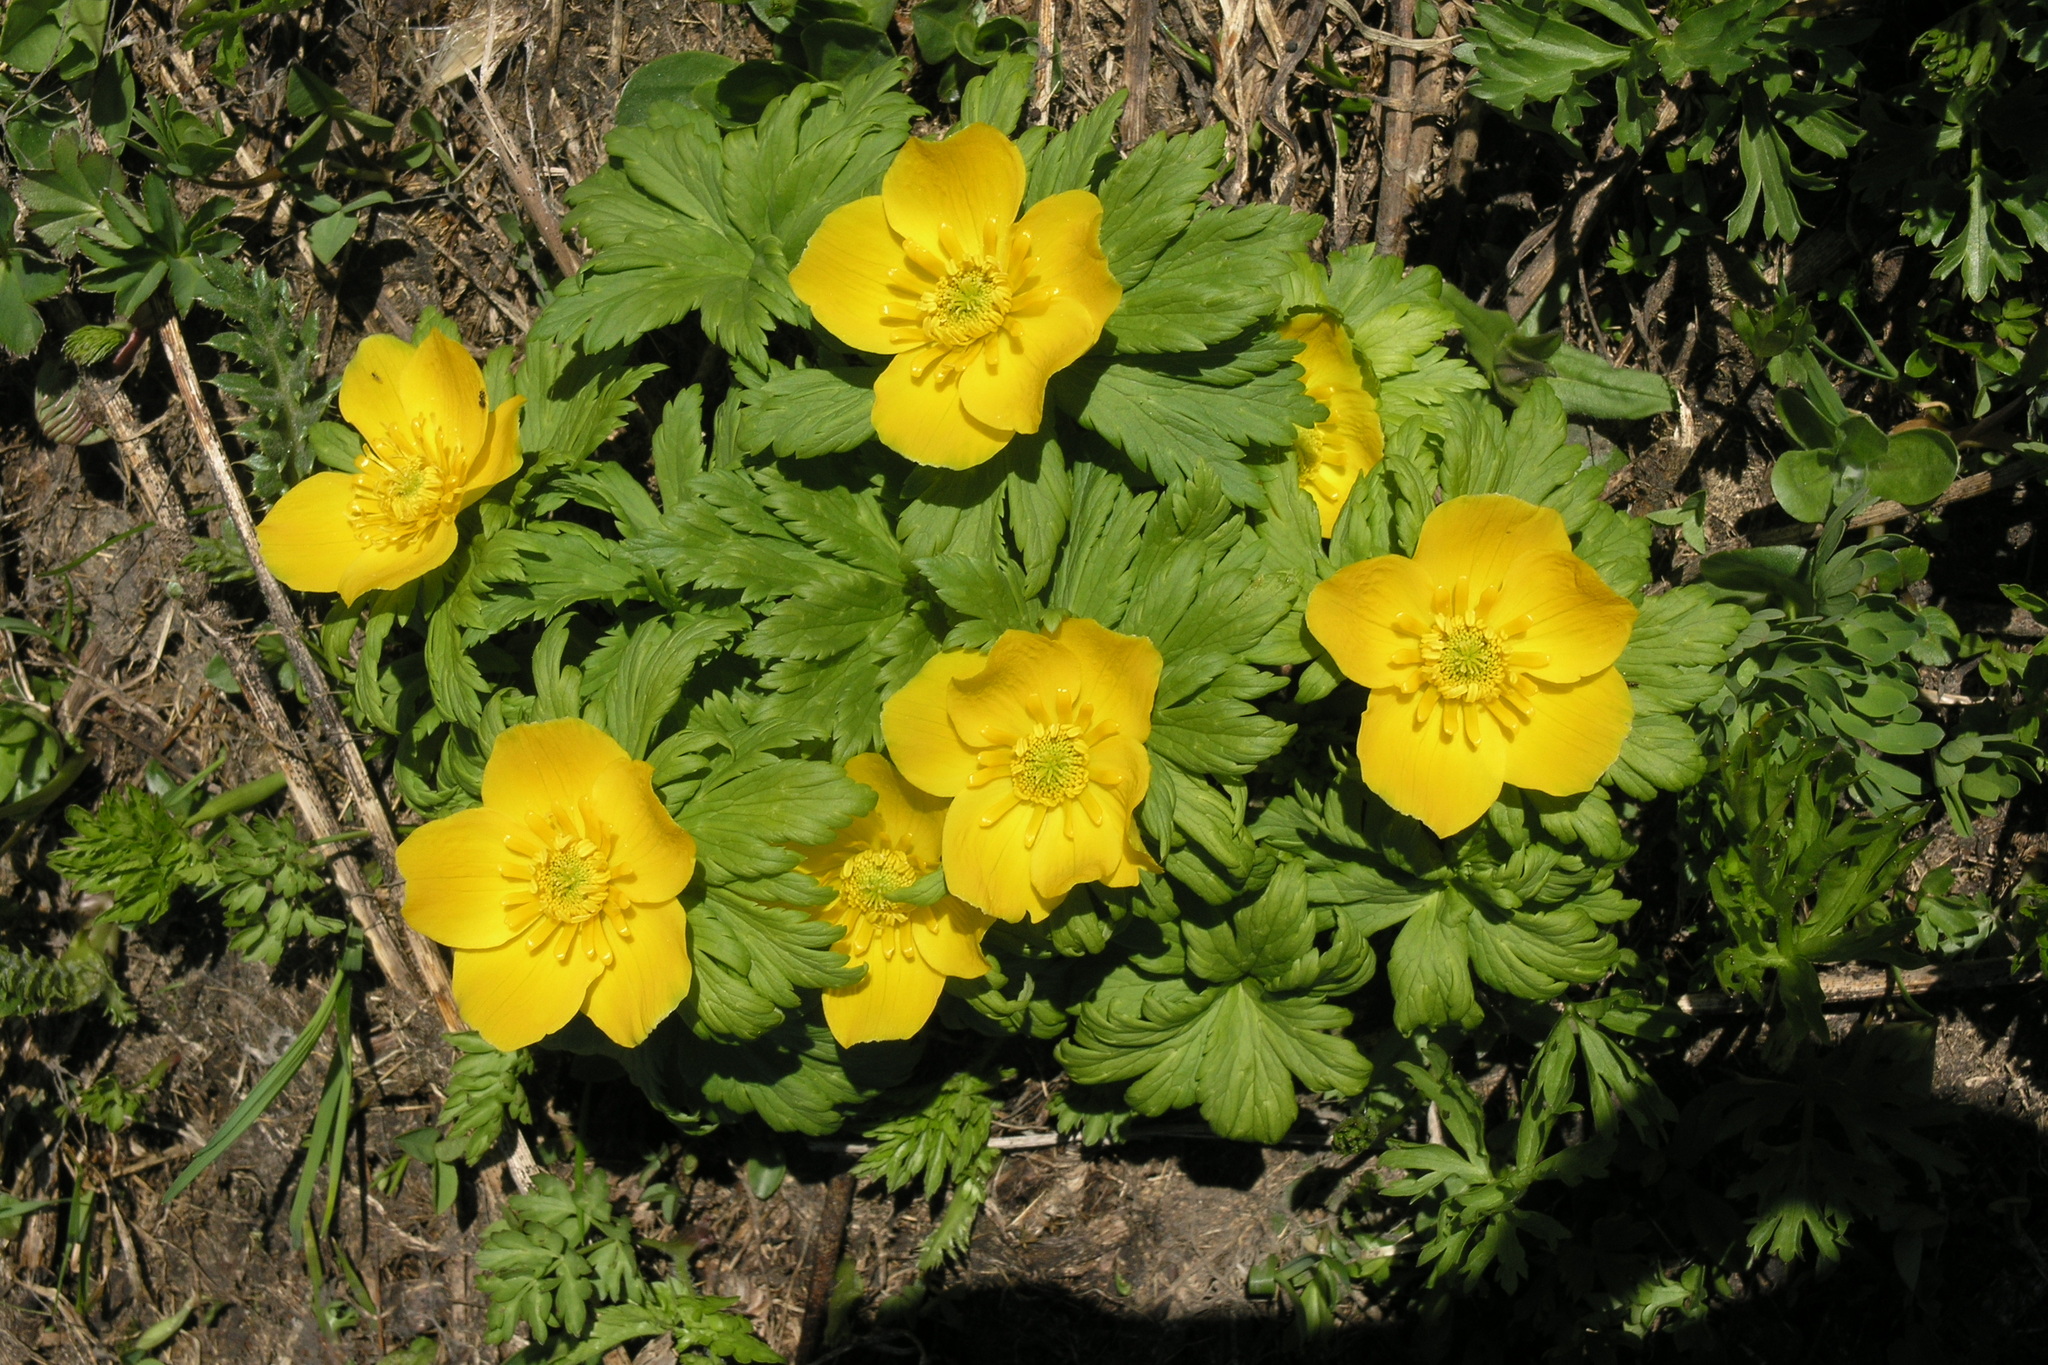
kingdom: Plantae
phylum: Tracheophyta
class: Magnoliopsida
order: Ranunculales
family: Ranunculaceae
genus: Trollius
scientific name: Trollius ranunculinus
